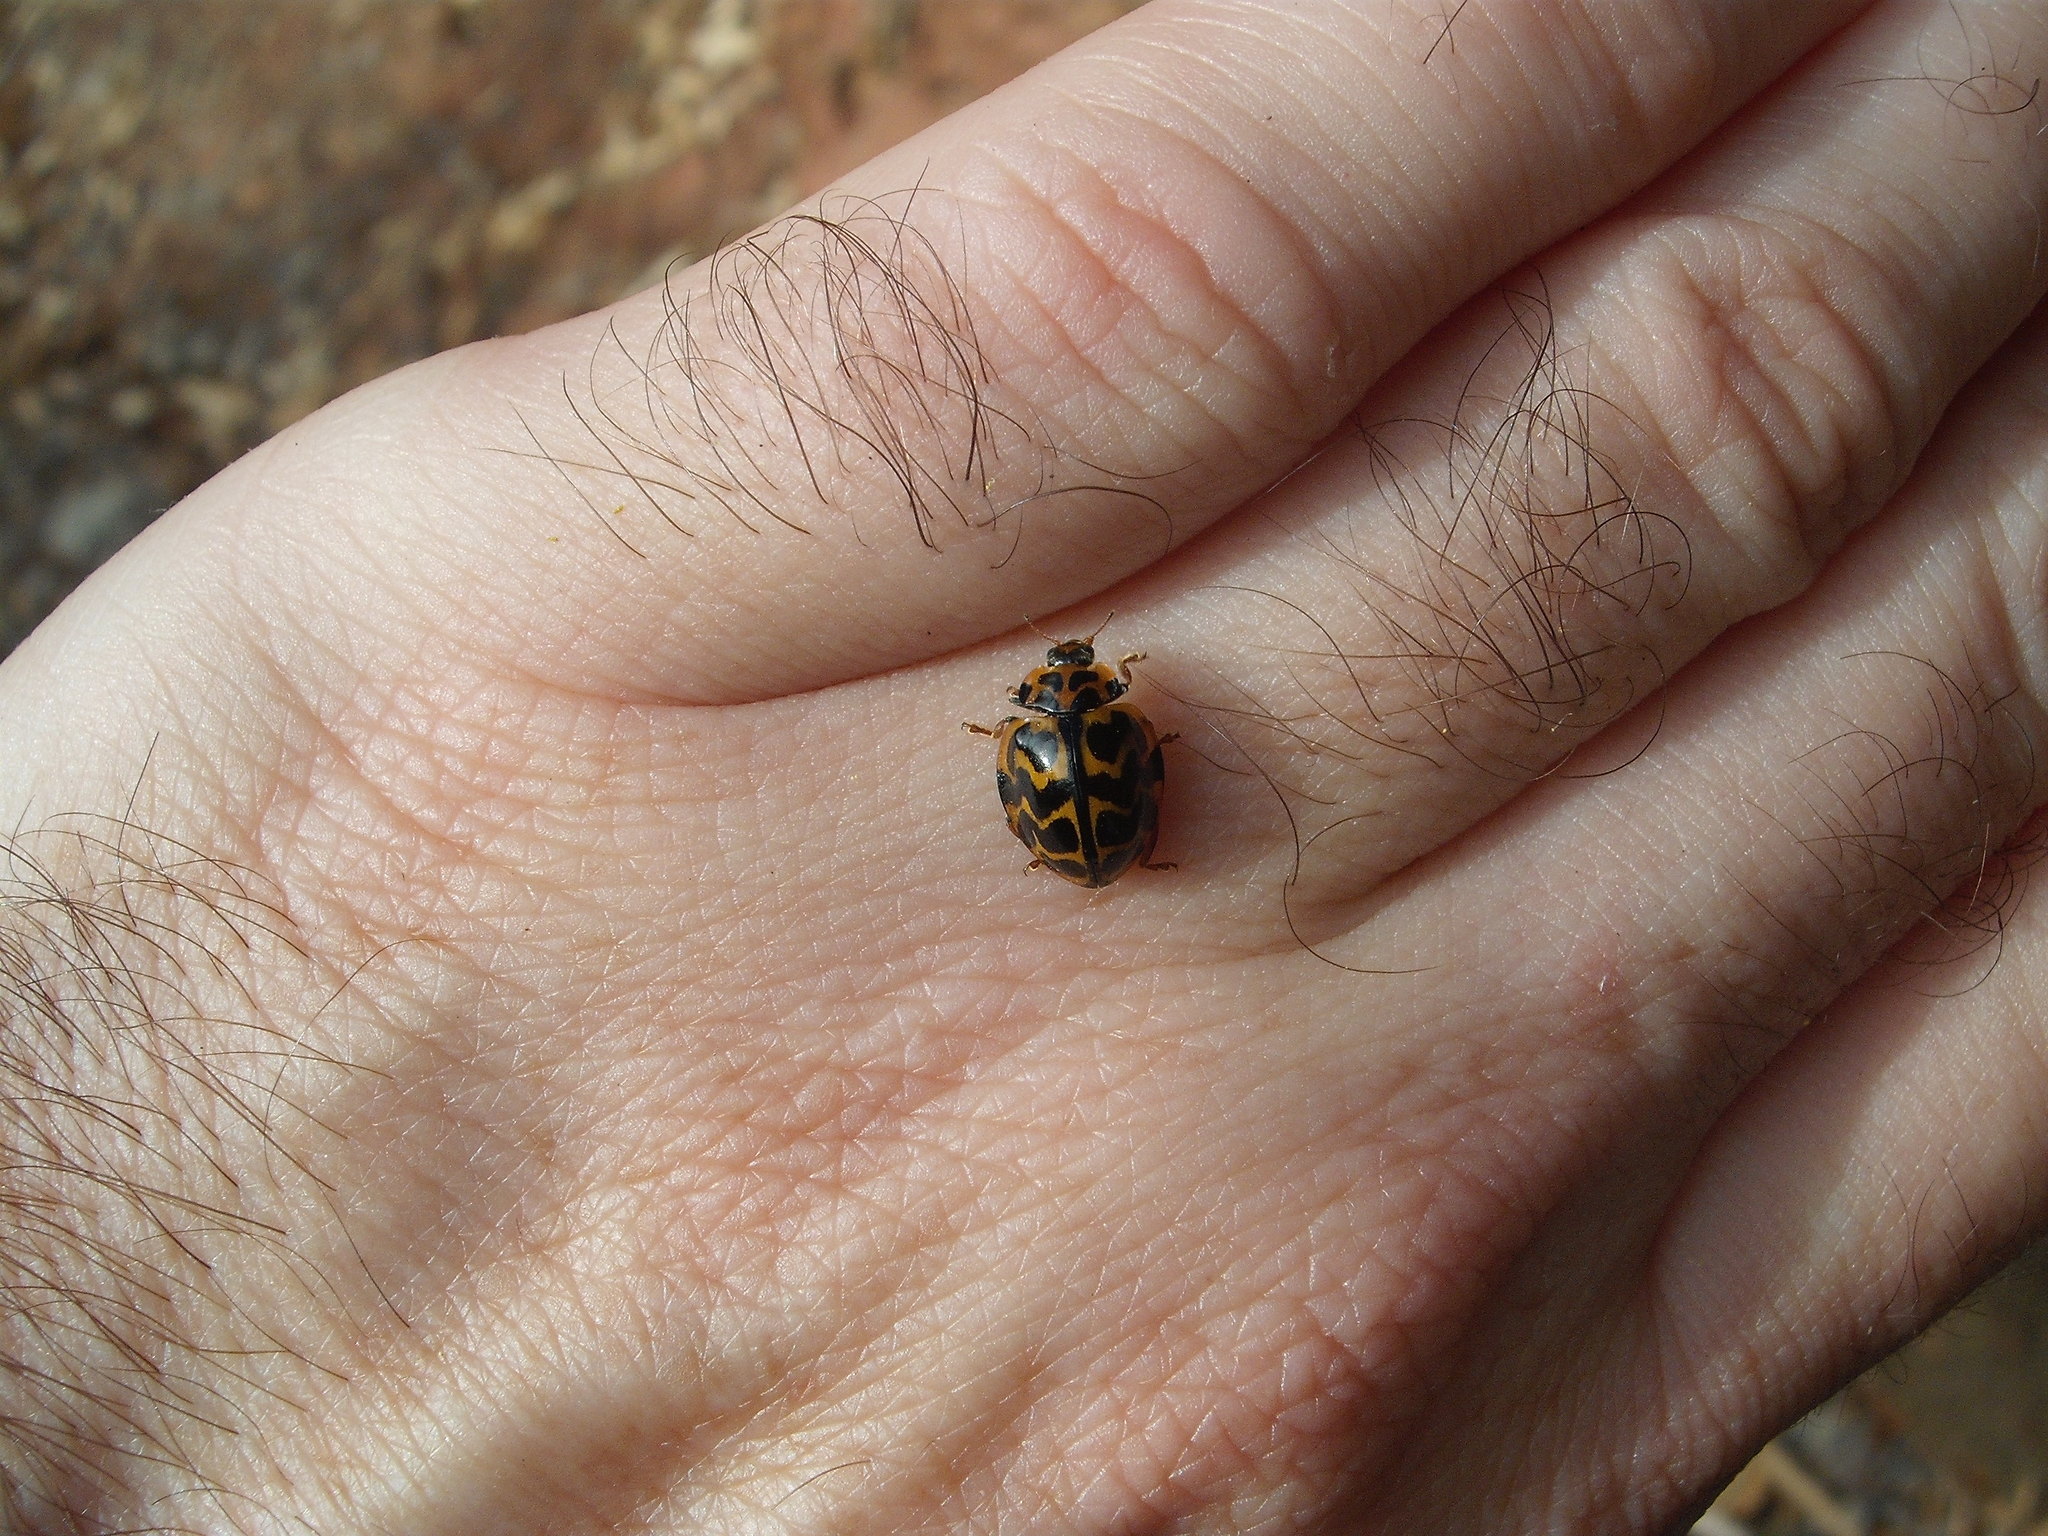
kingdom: Animalia
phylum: Arthropoda
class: Insecta
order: Coleoptera
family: Coccinellidae
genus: Cleobora
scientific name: Cleobora
